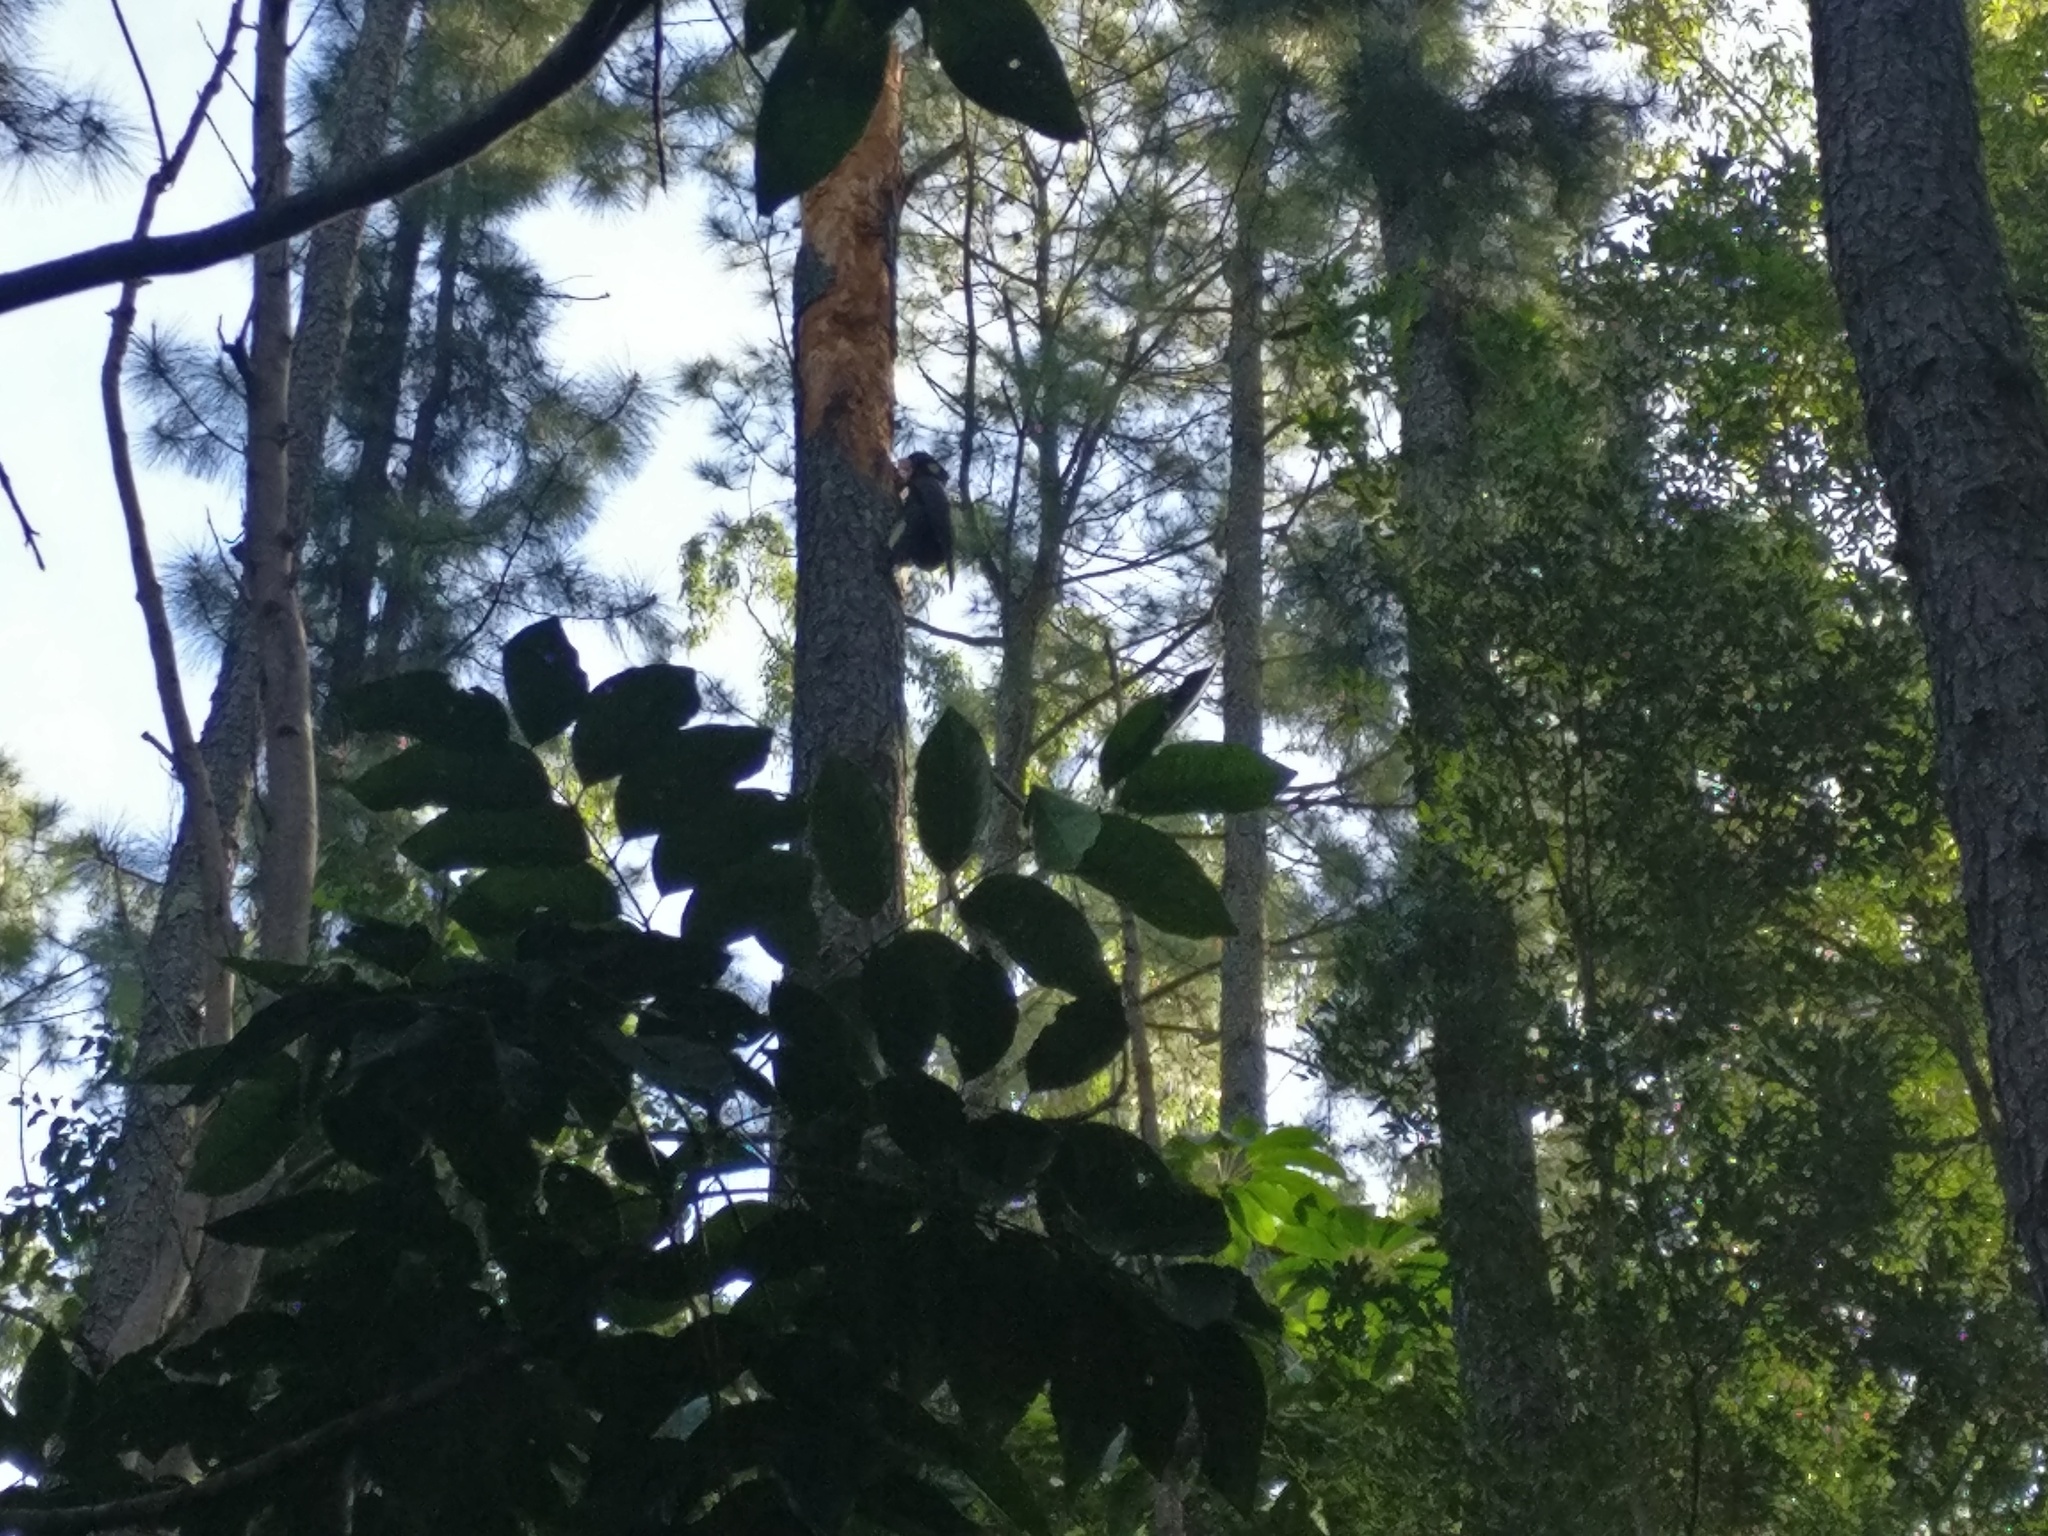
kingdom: Animalia
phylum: Chordata
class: Aves
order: Psittaciformes
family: Cacatuidae
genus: Zanda
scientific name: Zanda funerea
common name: Yellow-tailed black-cockatoo
